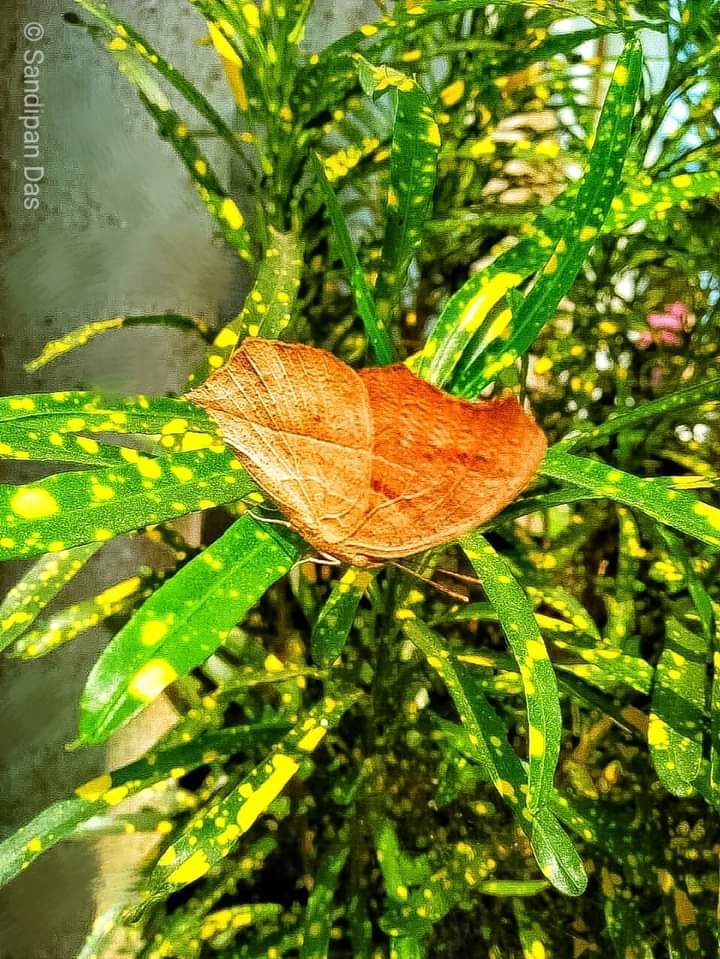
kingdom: Animalia
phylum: Arthropoda
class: Insecta
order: Lepidoptera
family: Nymphalidae
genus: Junonia
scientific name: Junonia iphita
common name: Chocolate pansy
